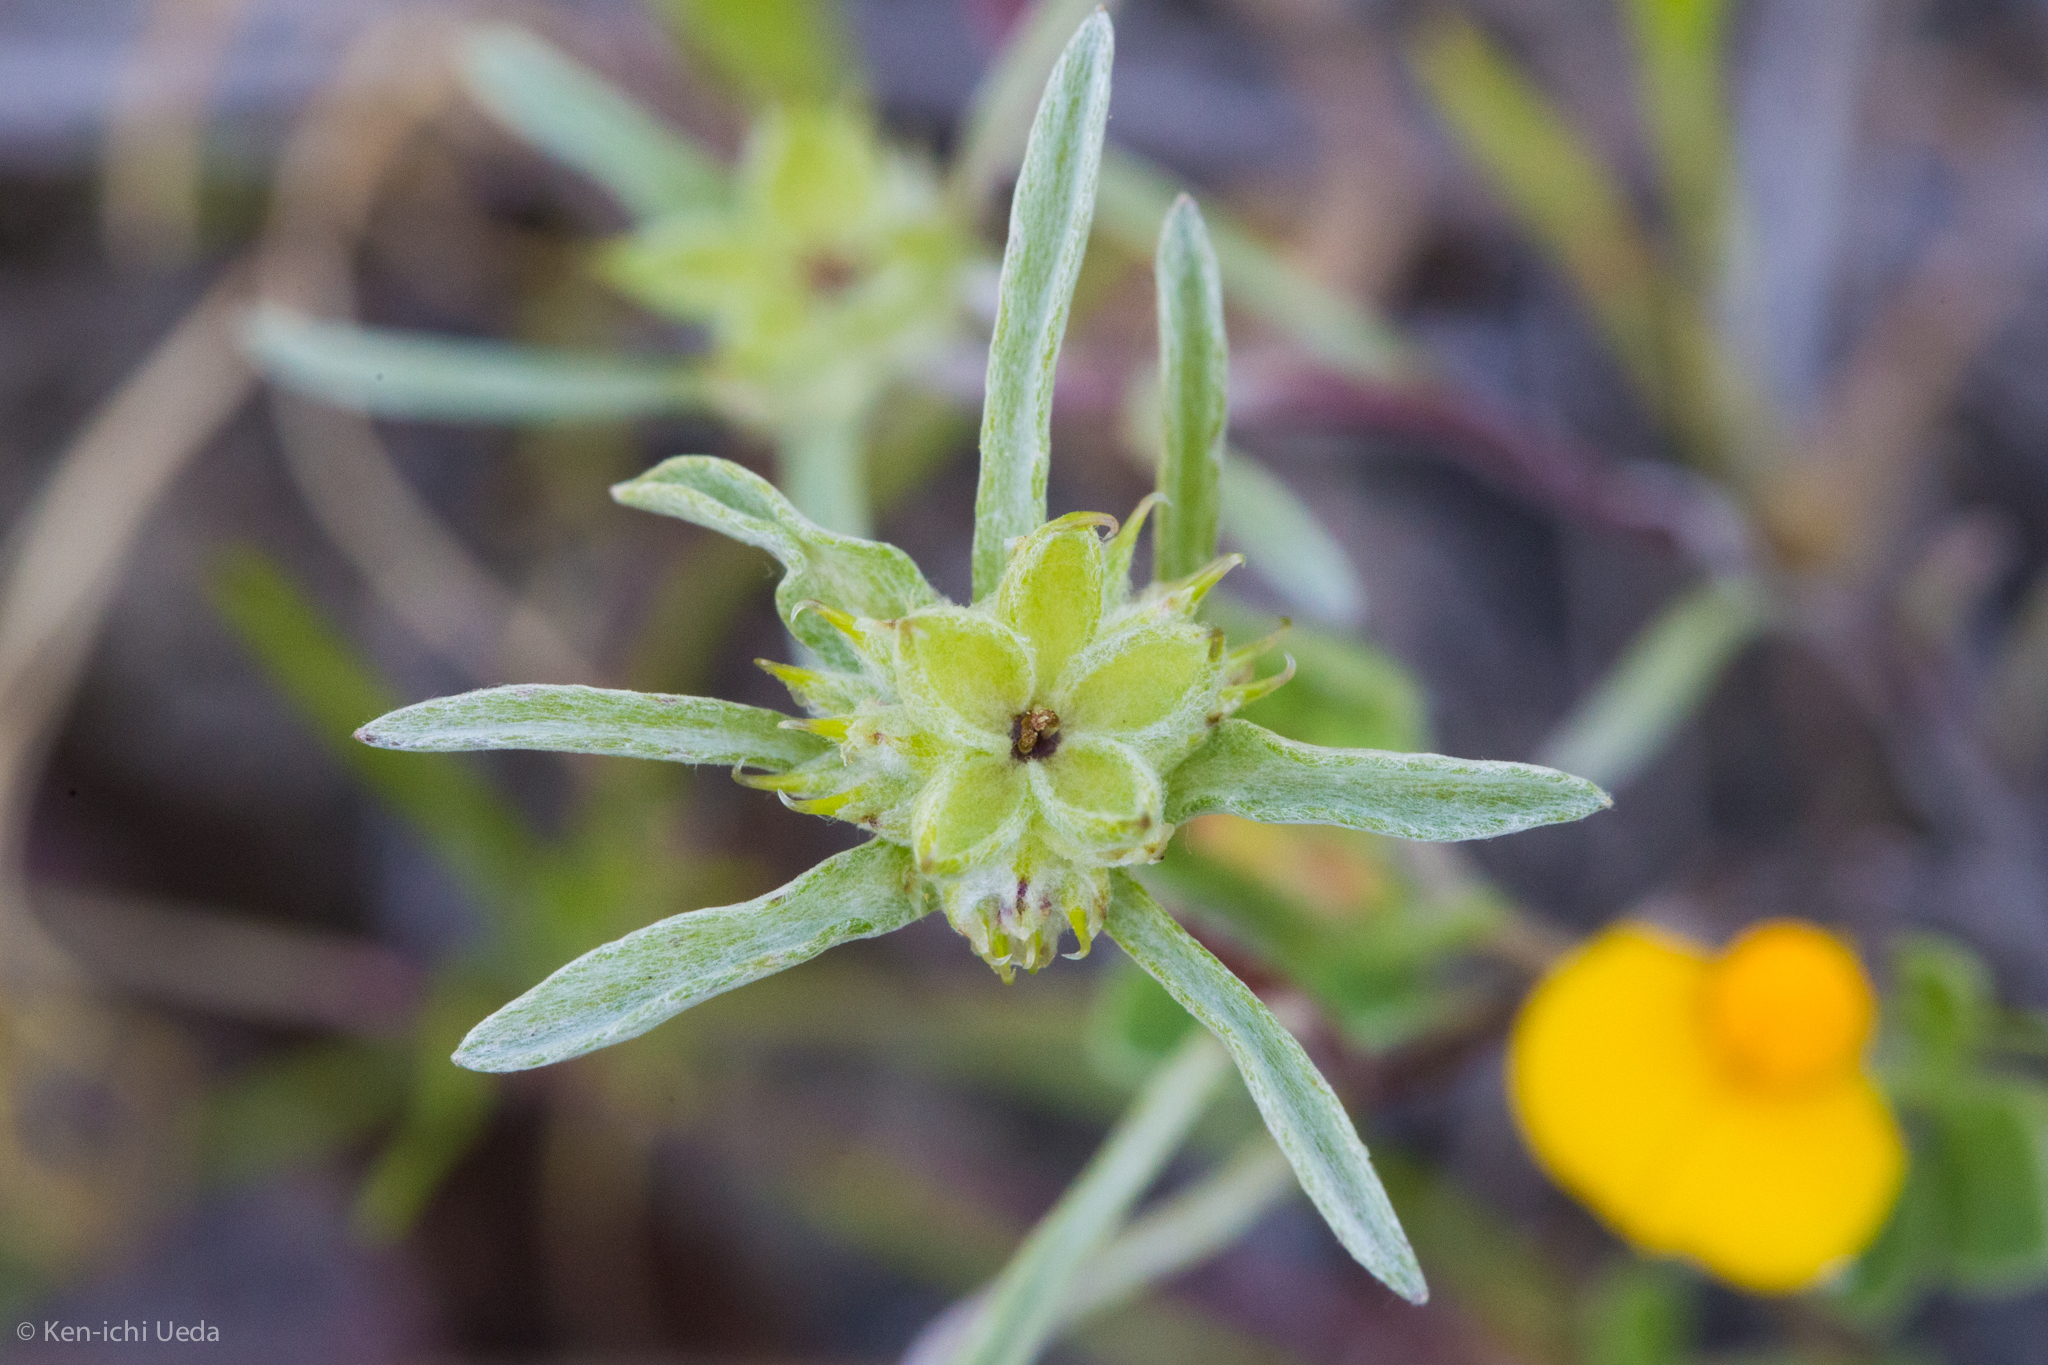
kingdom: Plantae
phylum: Tracheophyta
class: Magnoliopsida
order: Asterales
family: Asteraceae
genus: Ancistrocarphus
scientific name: Ancistrocarphus filagineus
